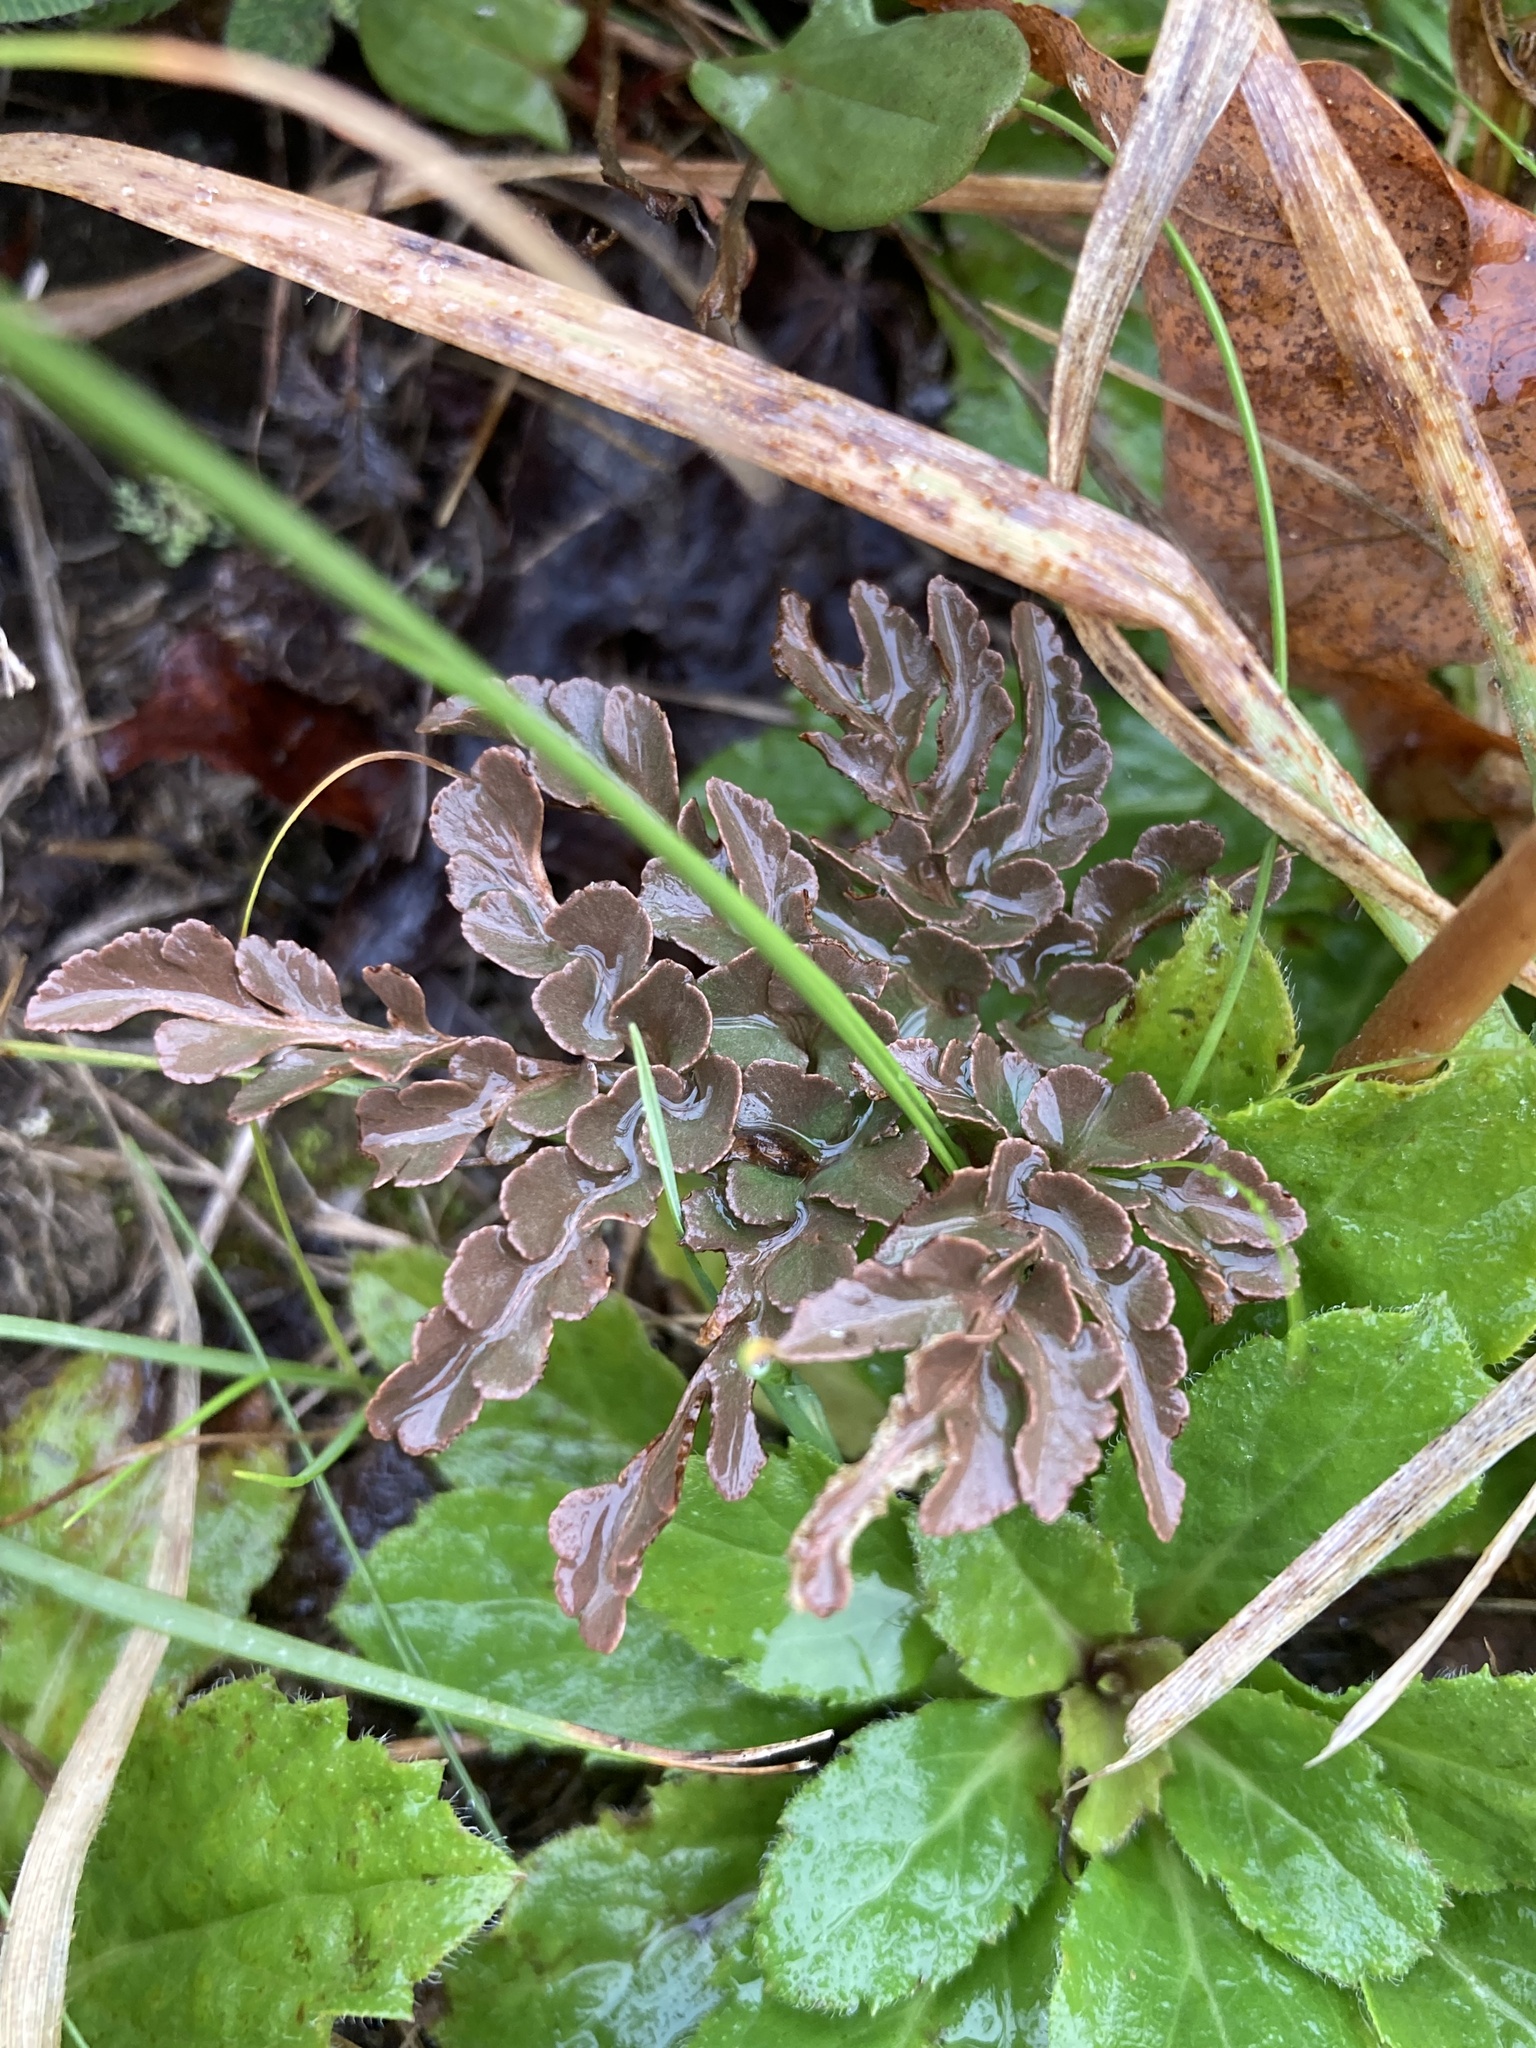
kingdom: Plantae
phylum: Tracheophyta
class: Polypodiopsida
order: Ophioglossales
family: Ophioglossaceae
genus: Sceptridium
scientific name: Sceptridium multifidum
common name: Leathery grape fern
